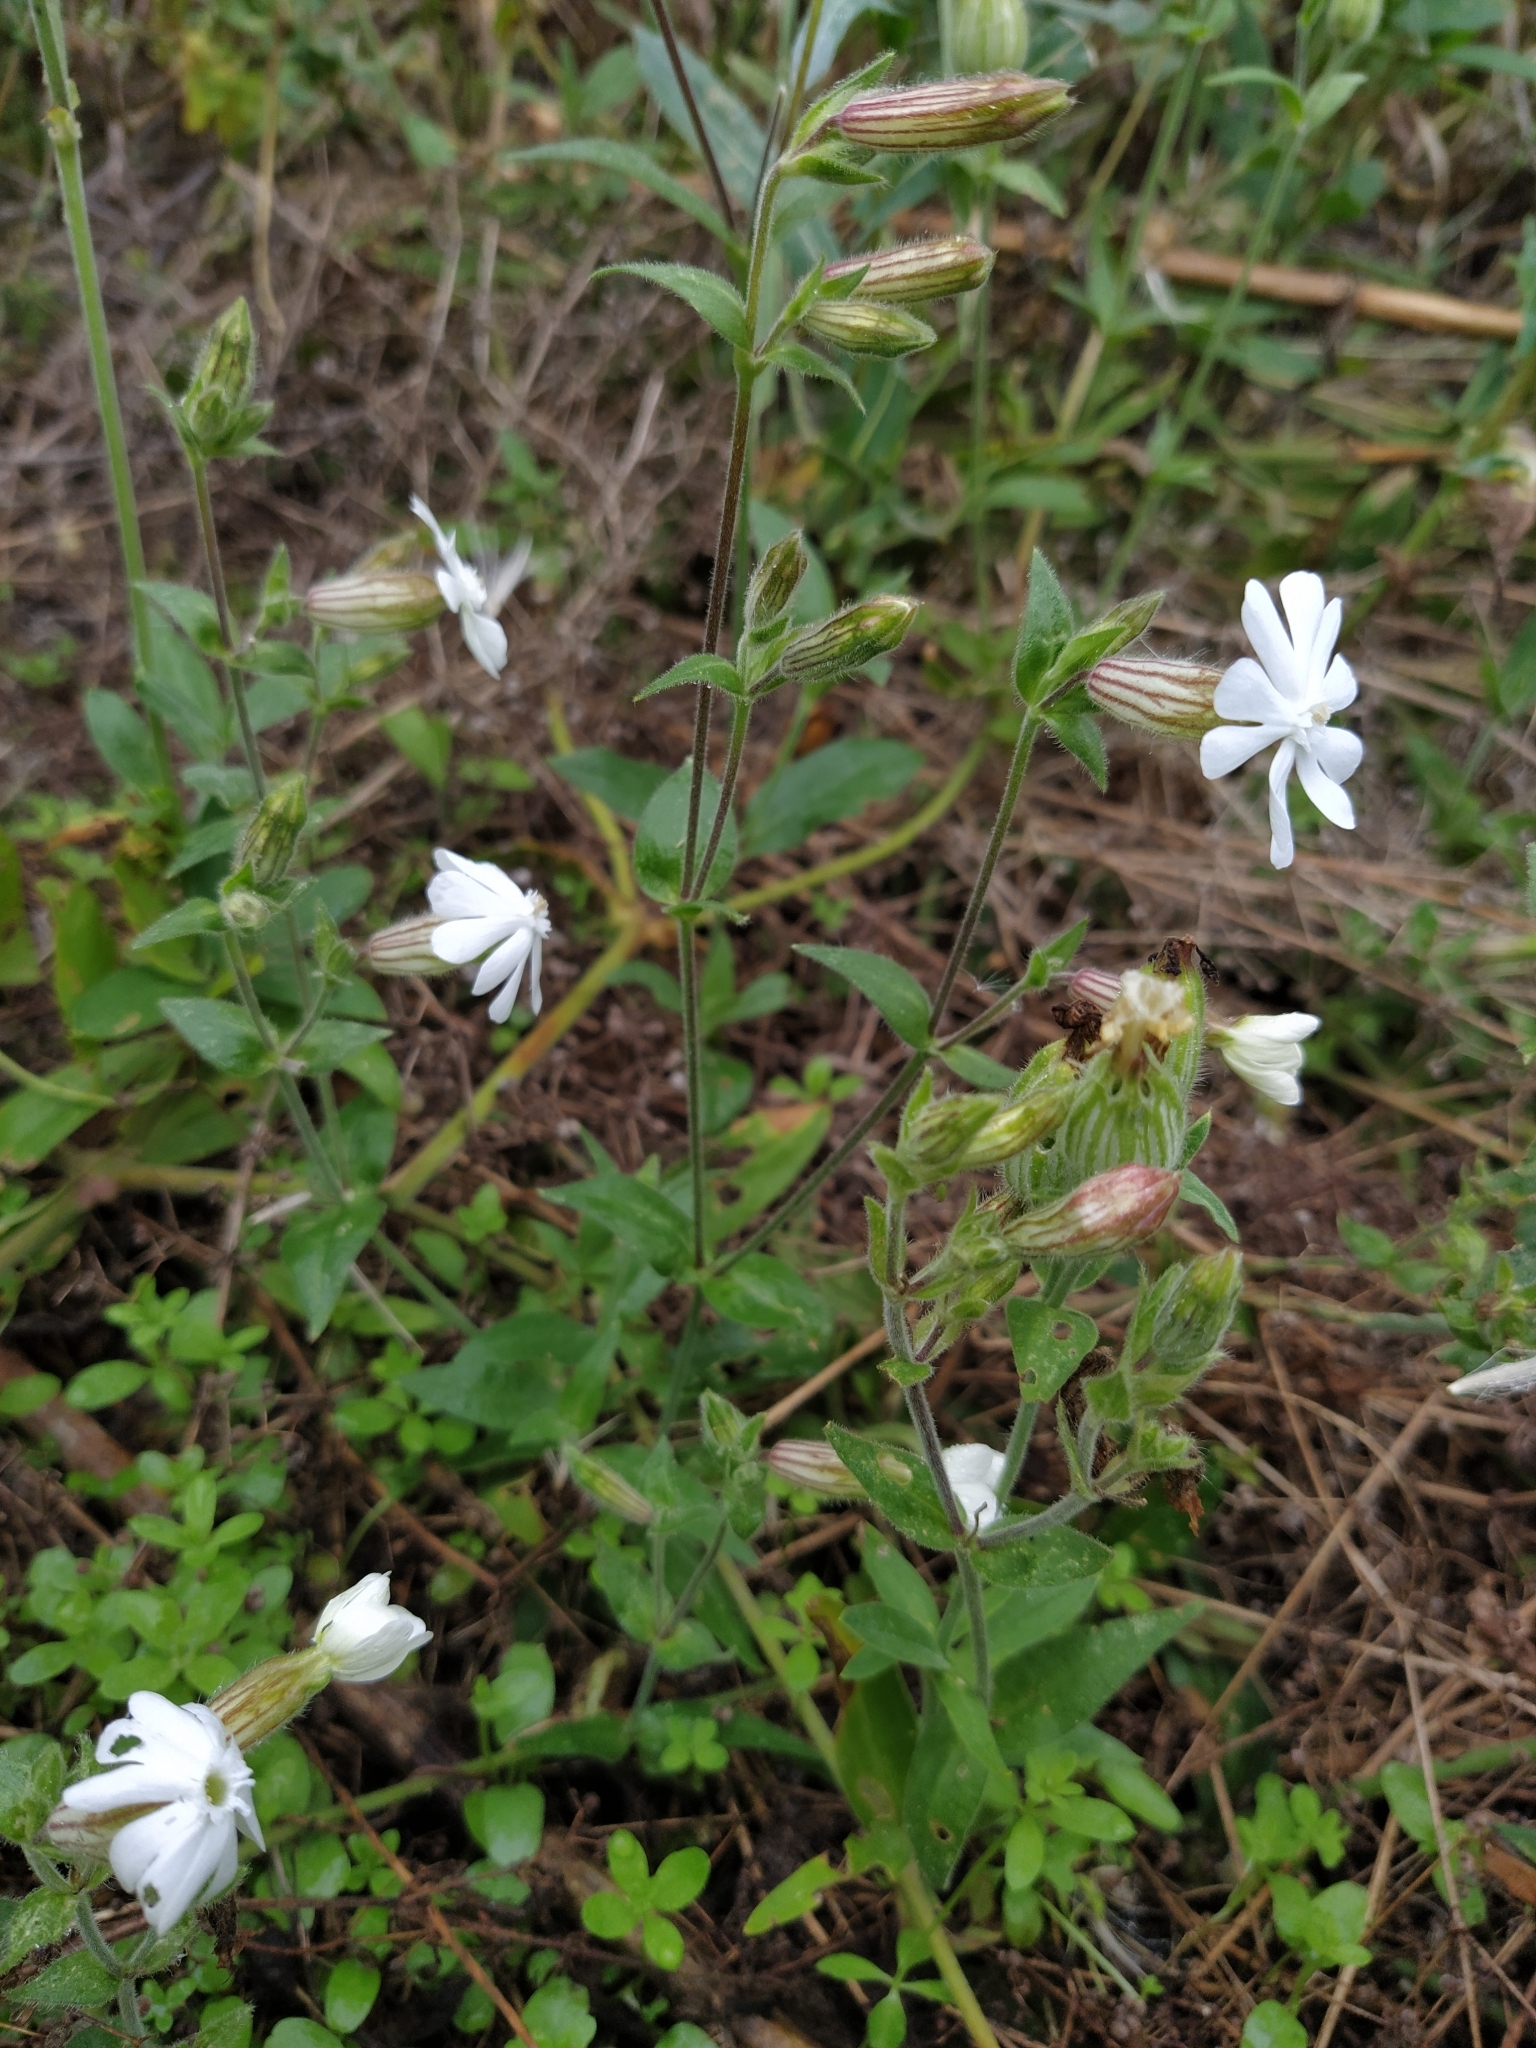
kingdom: Plantae
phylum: Tracheophyta
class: Magnoliopsida
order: Caryophyllales
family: Caryophyllaceae
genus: Silene
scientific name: Silene latifolia
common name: White campion
